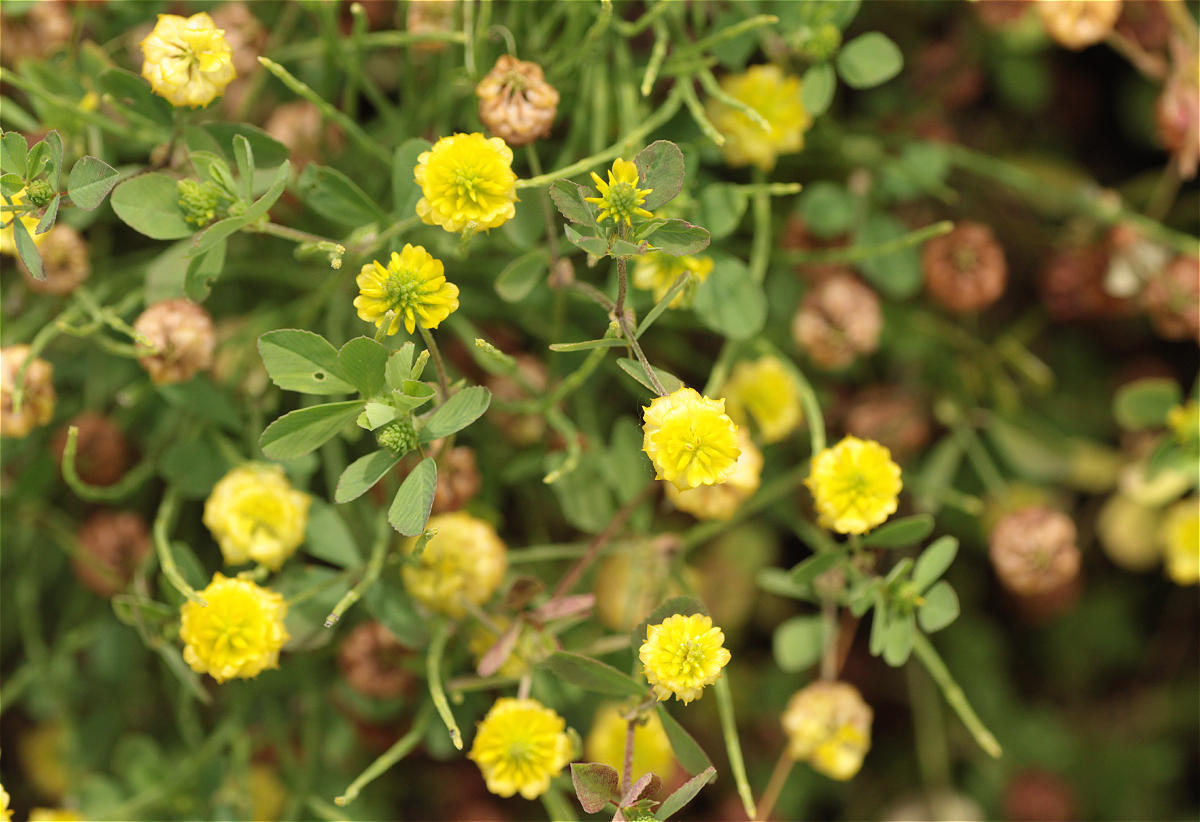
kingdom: Plantae
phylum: Tracheophyta
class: Magnoliopsida
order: Fabales
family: Fabaceae
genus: Trifolium
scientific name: Trifolium campestre
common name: Field clover
